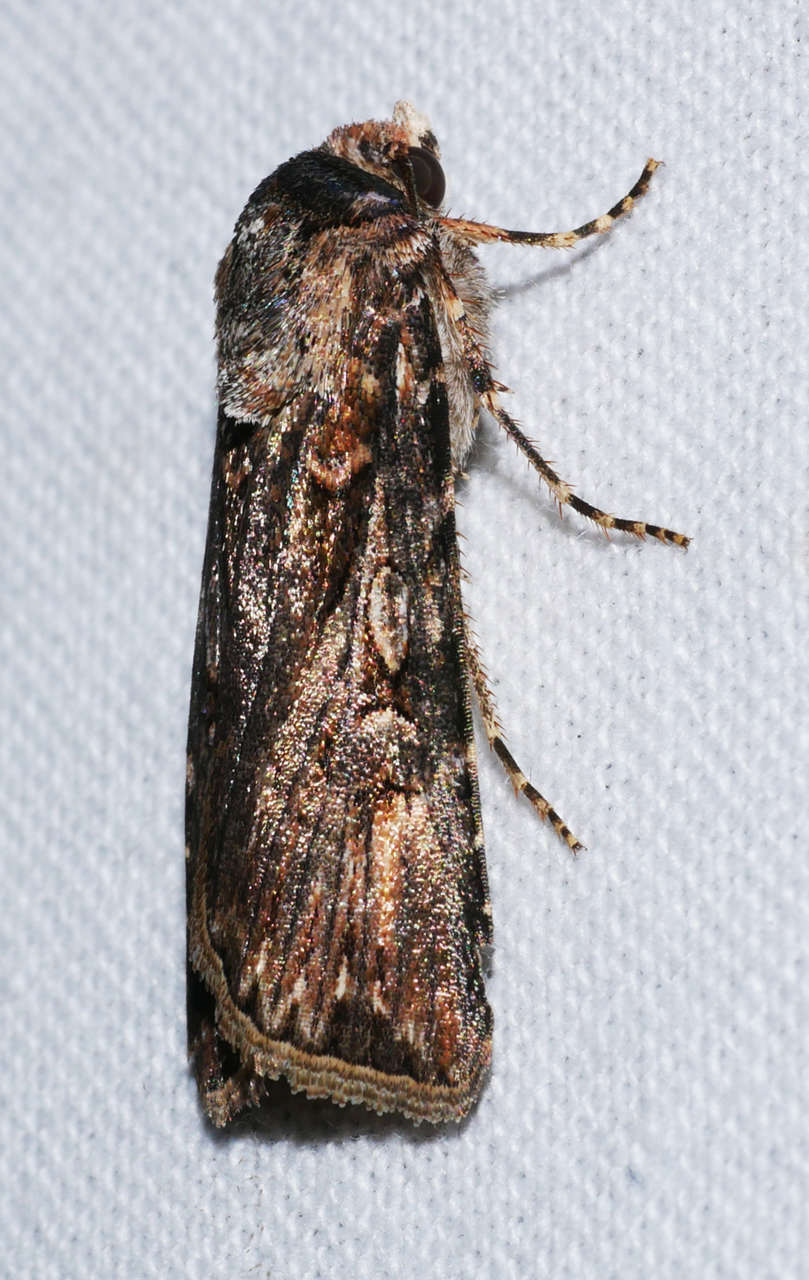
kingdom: Animalia
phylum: Arthropoda
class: Insecta
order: Lepidoptera
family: Noctuidae
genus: Persectania
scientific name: Persectania dyscrita
